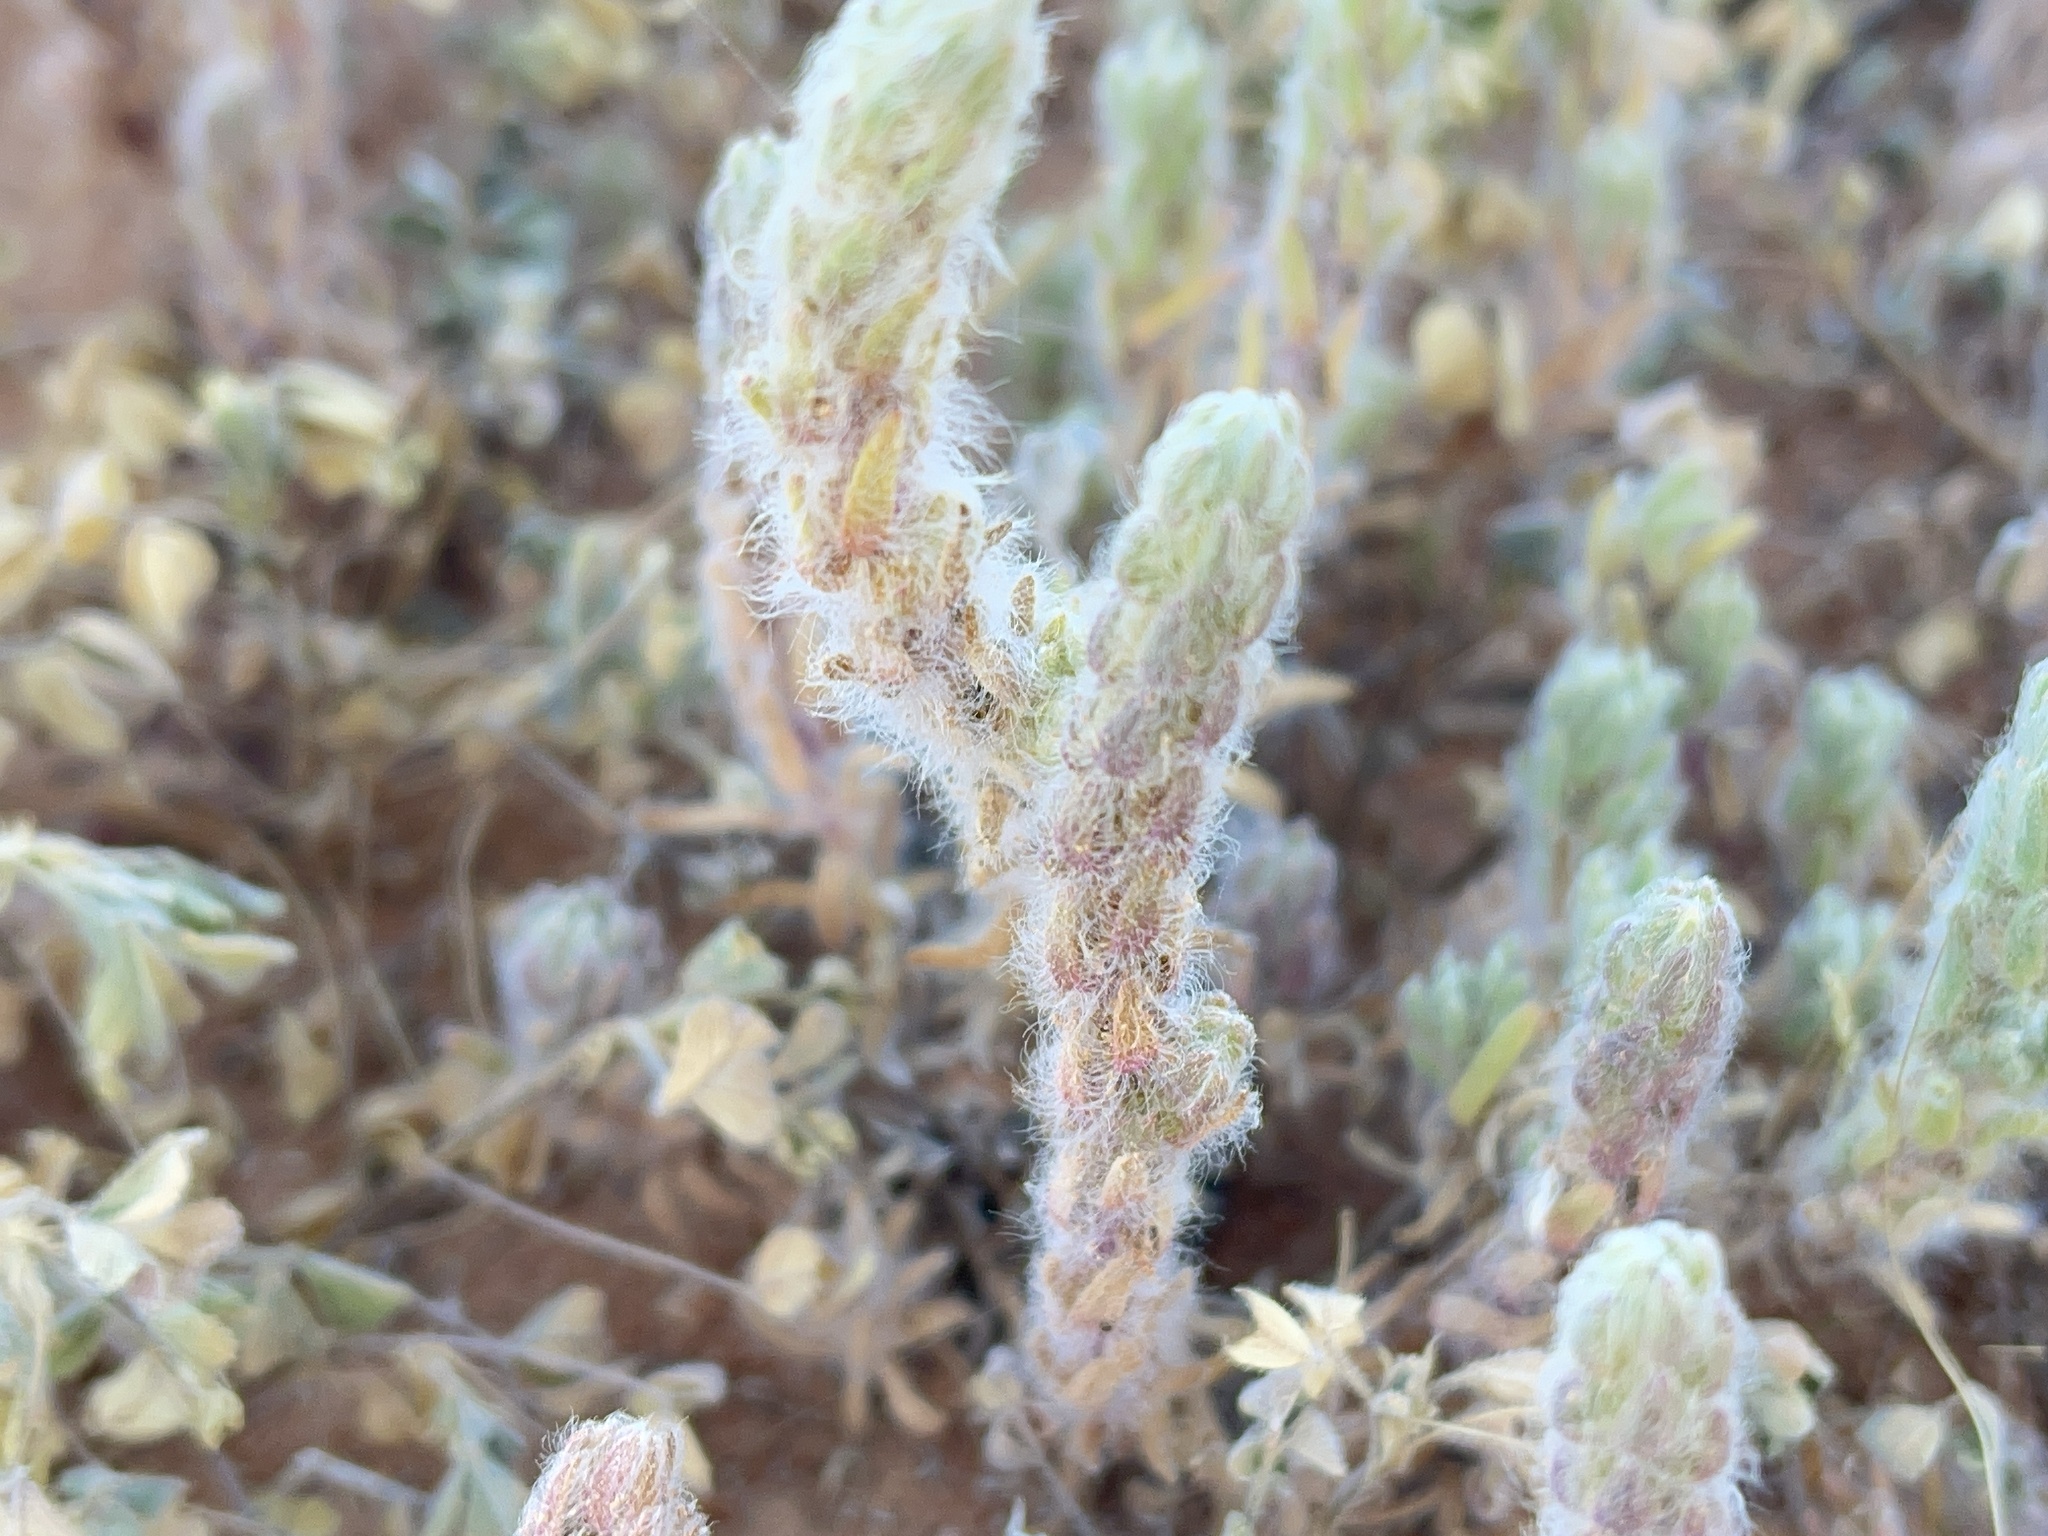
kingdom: Plantae
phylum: Tracheophyta
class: Magnoliopsida
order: Caryophyllales
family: Amaranthaceae
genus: Dissocarpus
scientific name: Dissocarpus paradoxus
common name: Bur-saltbush
